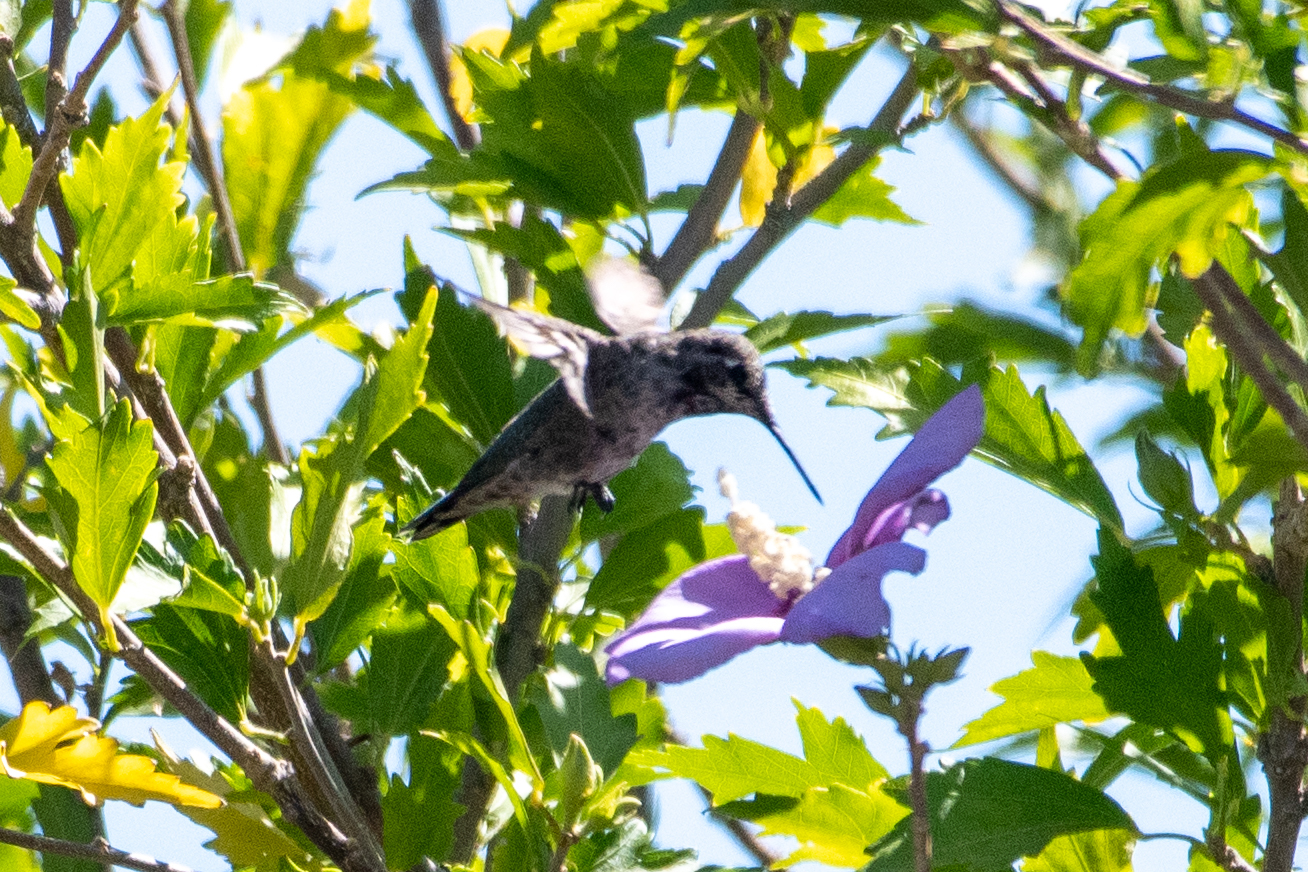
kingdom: Animalia
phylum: Chordata
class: Aves
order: Apodiformes
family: Trochilidae
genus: Calypte
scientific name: Calypte anna
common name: Anna's hummingbird
